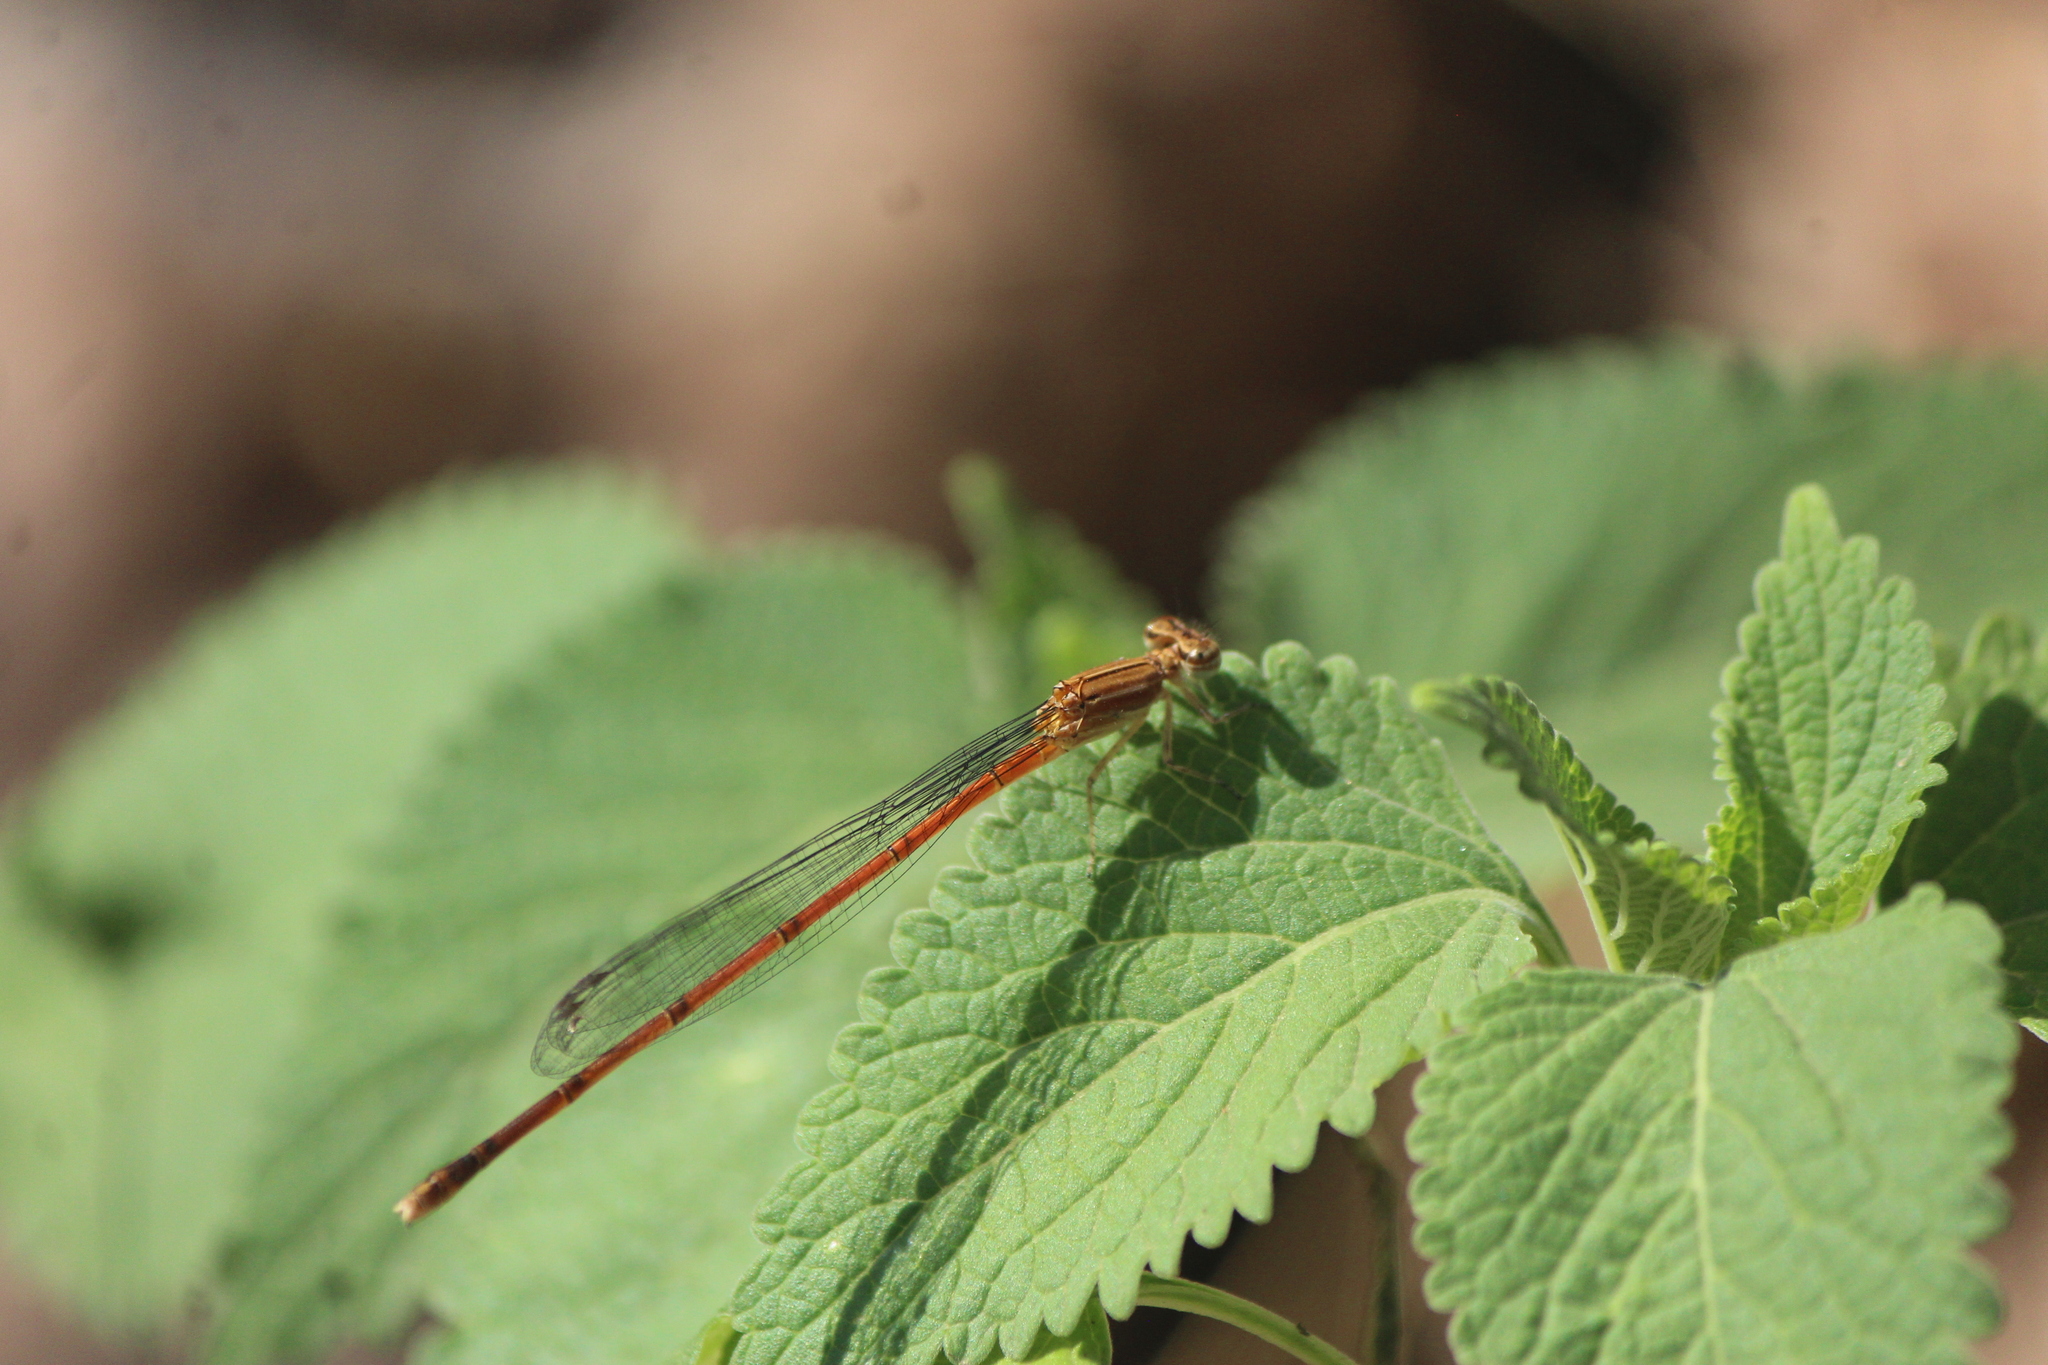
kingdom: Animalia
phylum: Arthropoda
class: Insecta
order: Odonata
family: Coenagrionidae
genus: Apanisagrion
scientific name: Apanisagrion lais
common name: Black-and-white damsel
